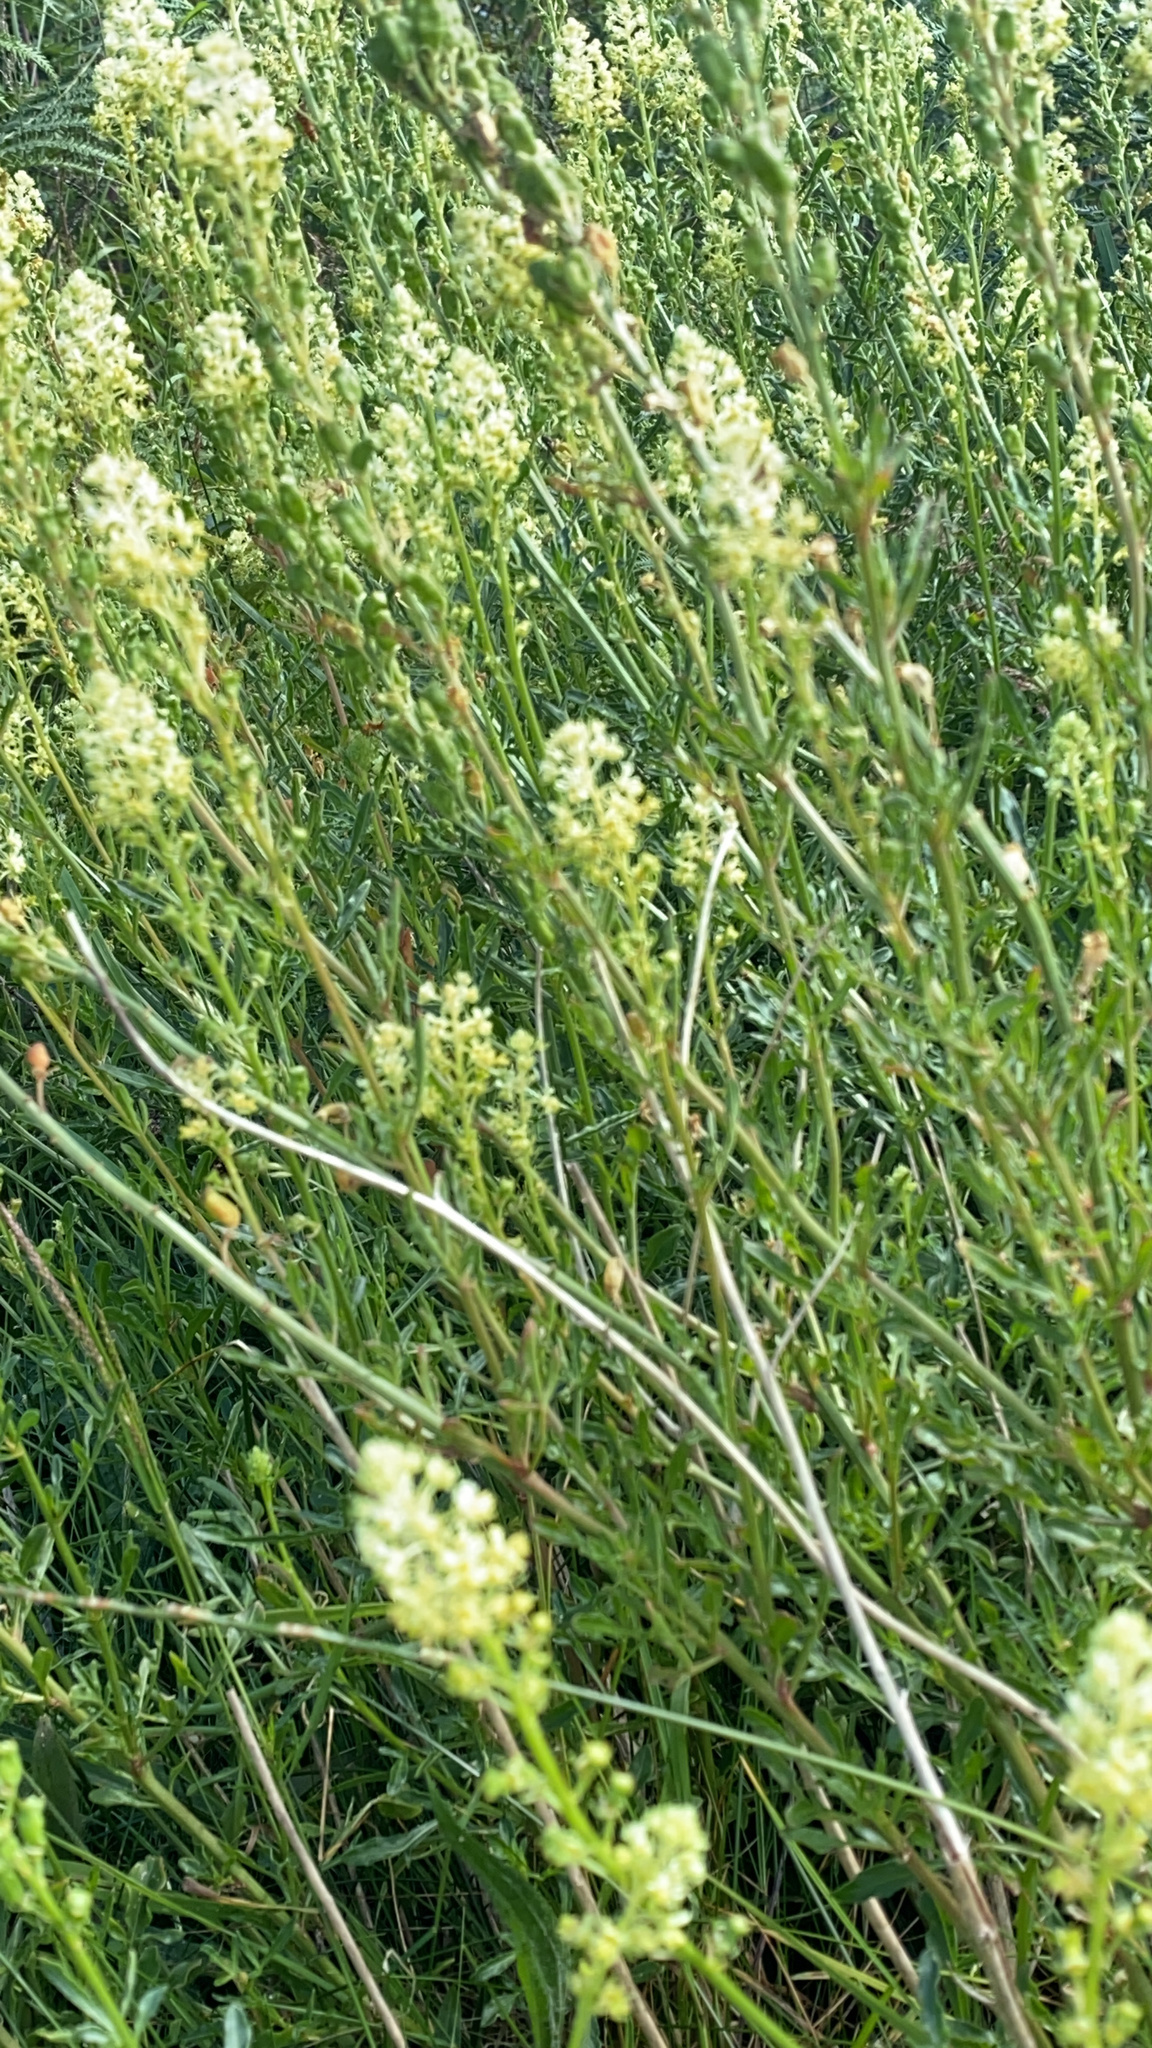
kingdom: Plantae
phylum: Tracheophyta
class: Magnoliopsida
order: Brassicales
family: Resedaceae
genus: Reseda
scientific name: Reseda lutea
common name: Wild mignonette
